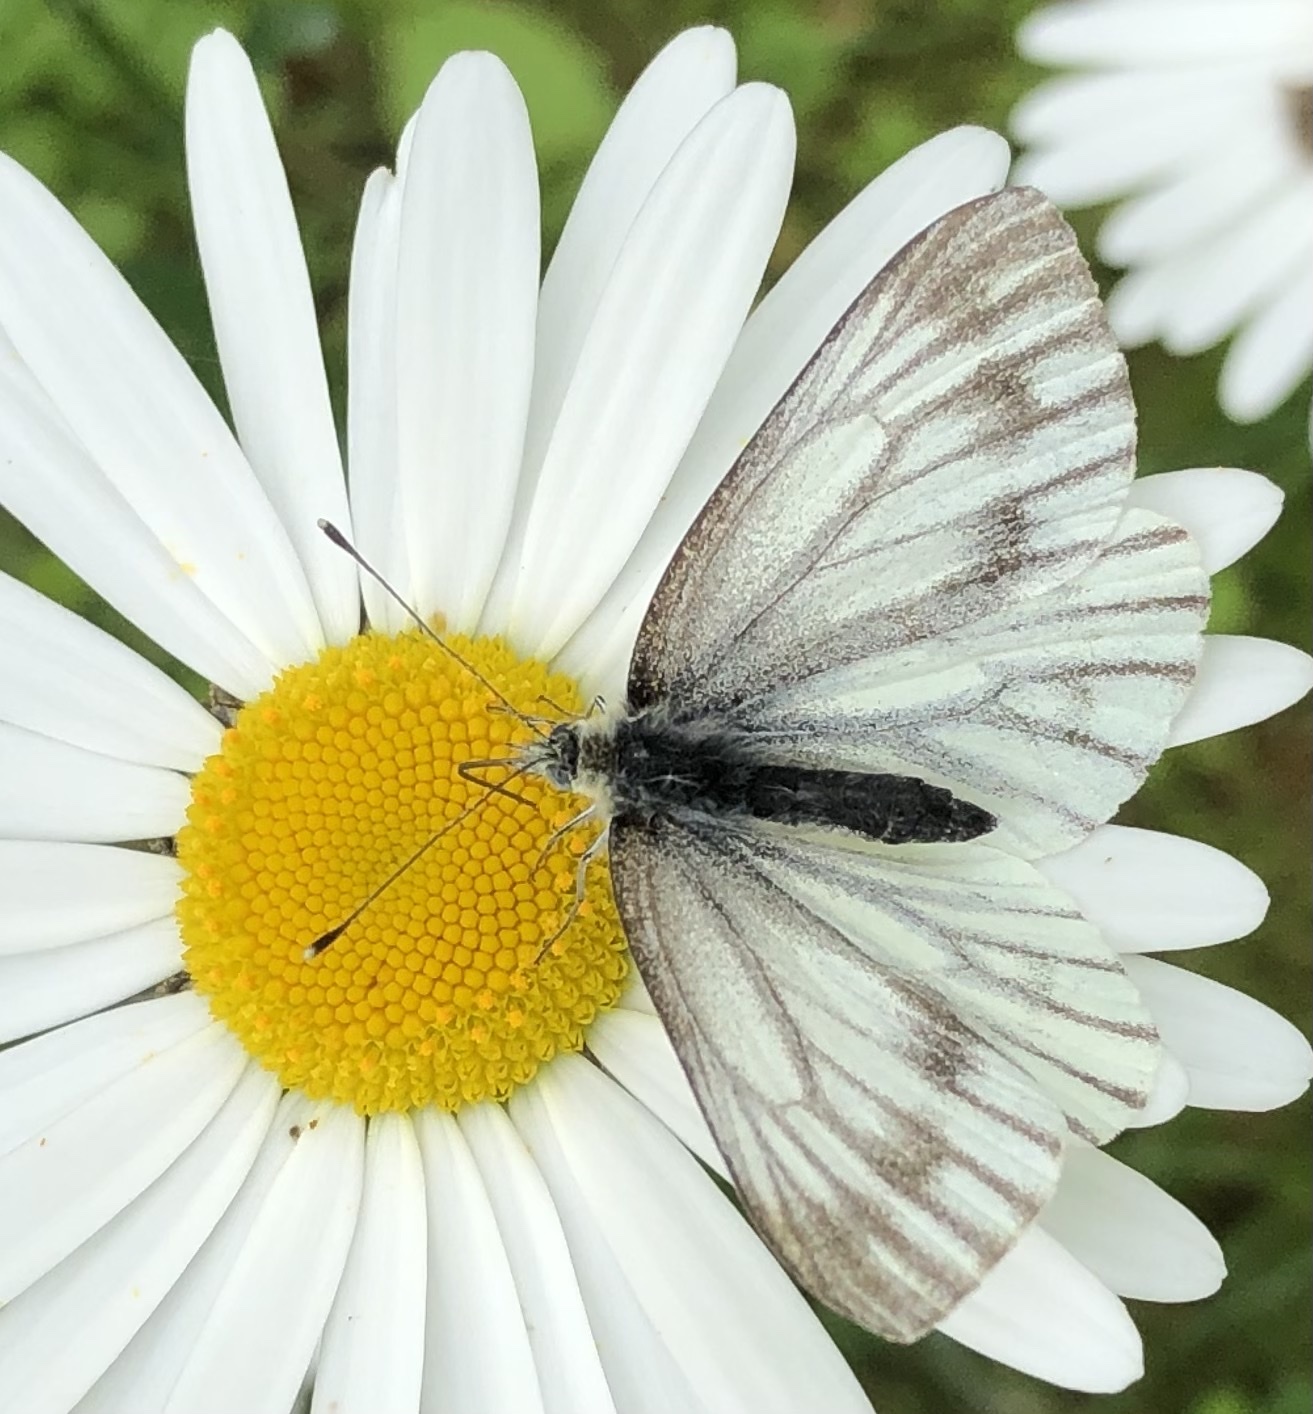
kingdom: Animalia
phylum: Arthropoda
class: Insecta
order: Lepidoptera
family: Pieridae
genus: Pieris
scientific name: Pieris napi
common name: Green-veined white
